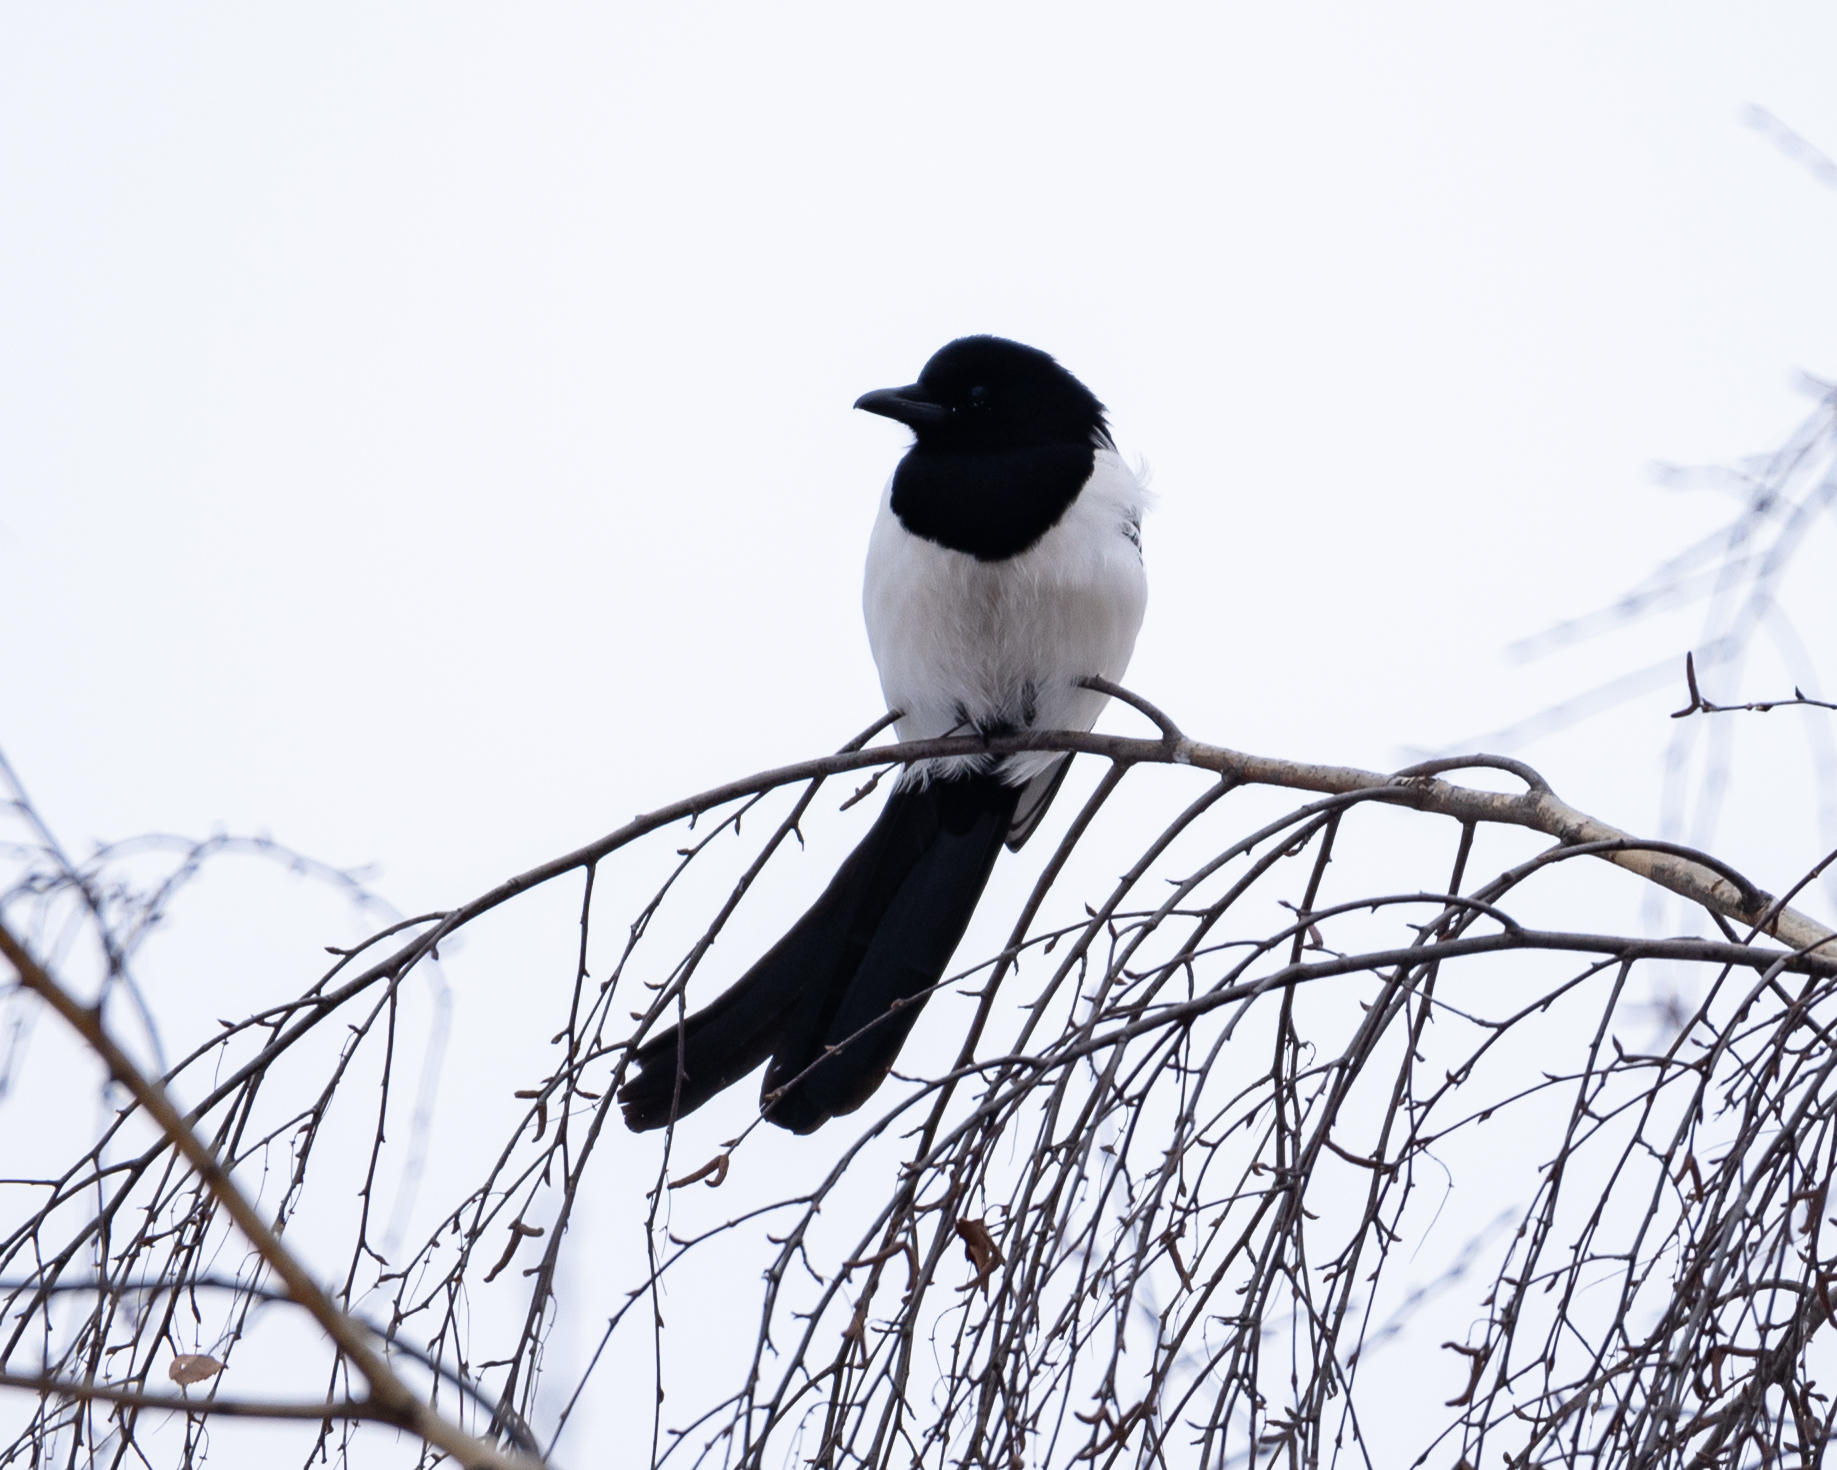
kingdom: Animalia
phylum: Chordata
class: Aves
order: Passeriformes
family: Corvidae
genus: Pica
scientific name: Pica pica
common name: Eurasian magpie
